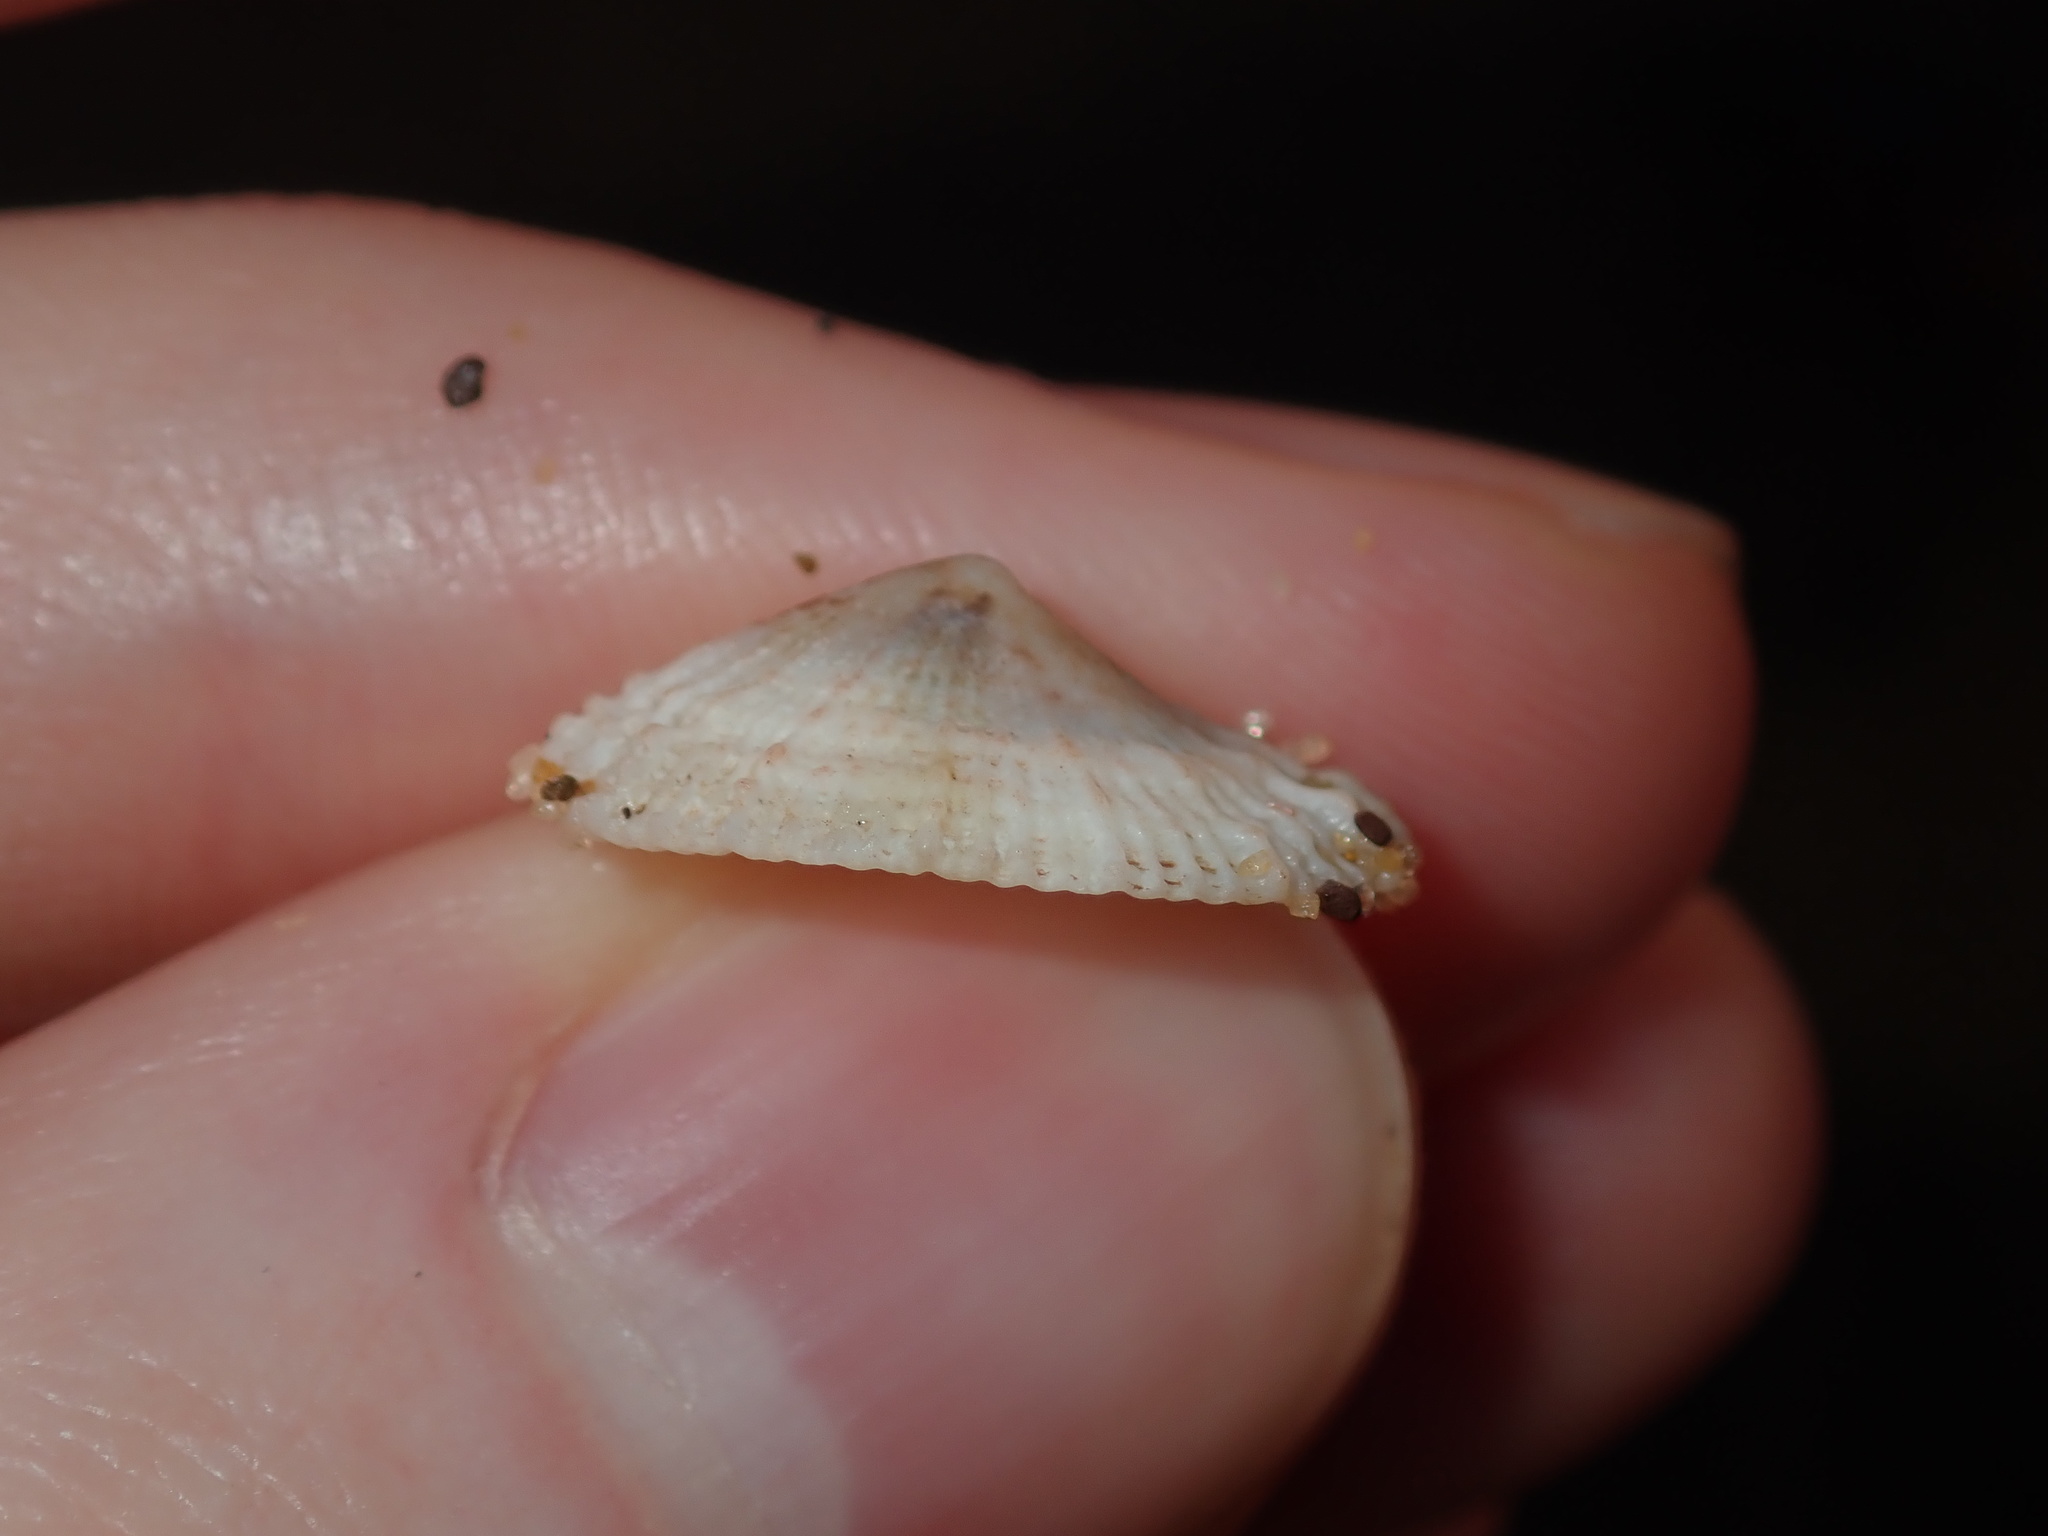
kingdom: Animalia
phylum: Mollusca
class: Gastropoda
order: Lepetellida
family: Fissurellidae
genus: Montfortula
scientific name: Montfortula rugosa
